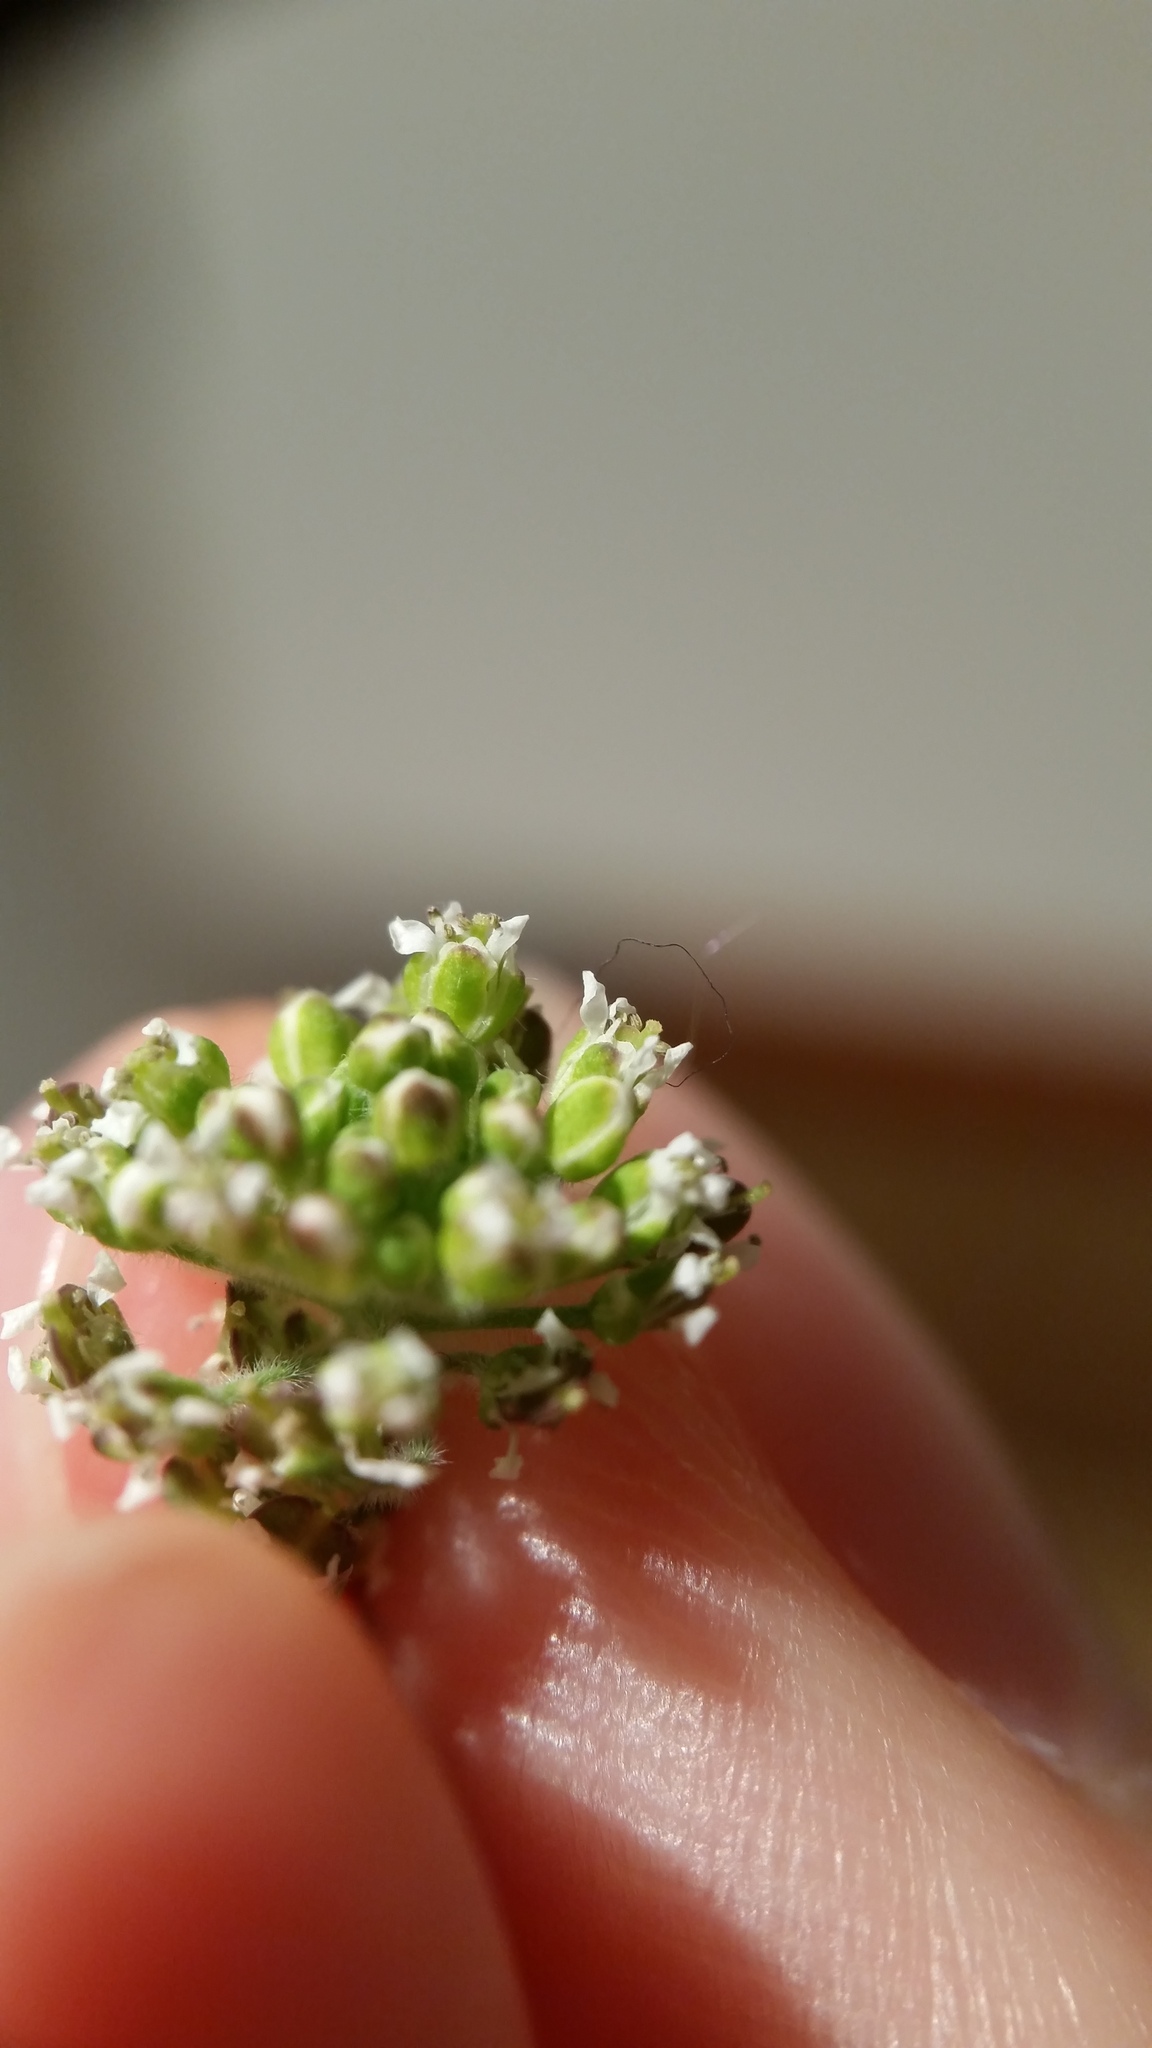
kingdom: Plantae
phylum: Tracheophyta
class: Magnoliopsida
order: Brassicales
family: Brassicaceae
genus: Lepidium
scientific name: Lepidium campestre
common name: Field pepperwort
